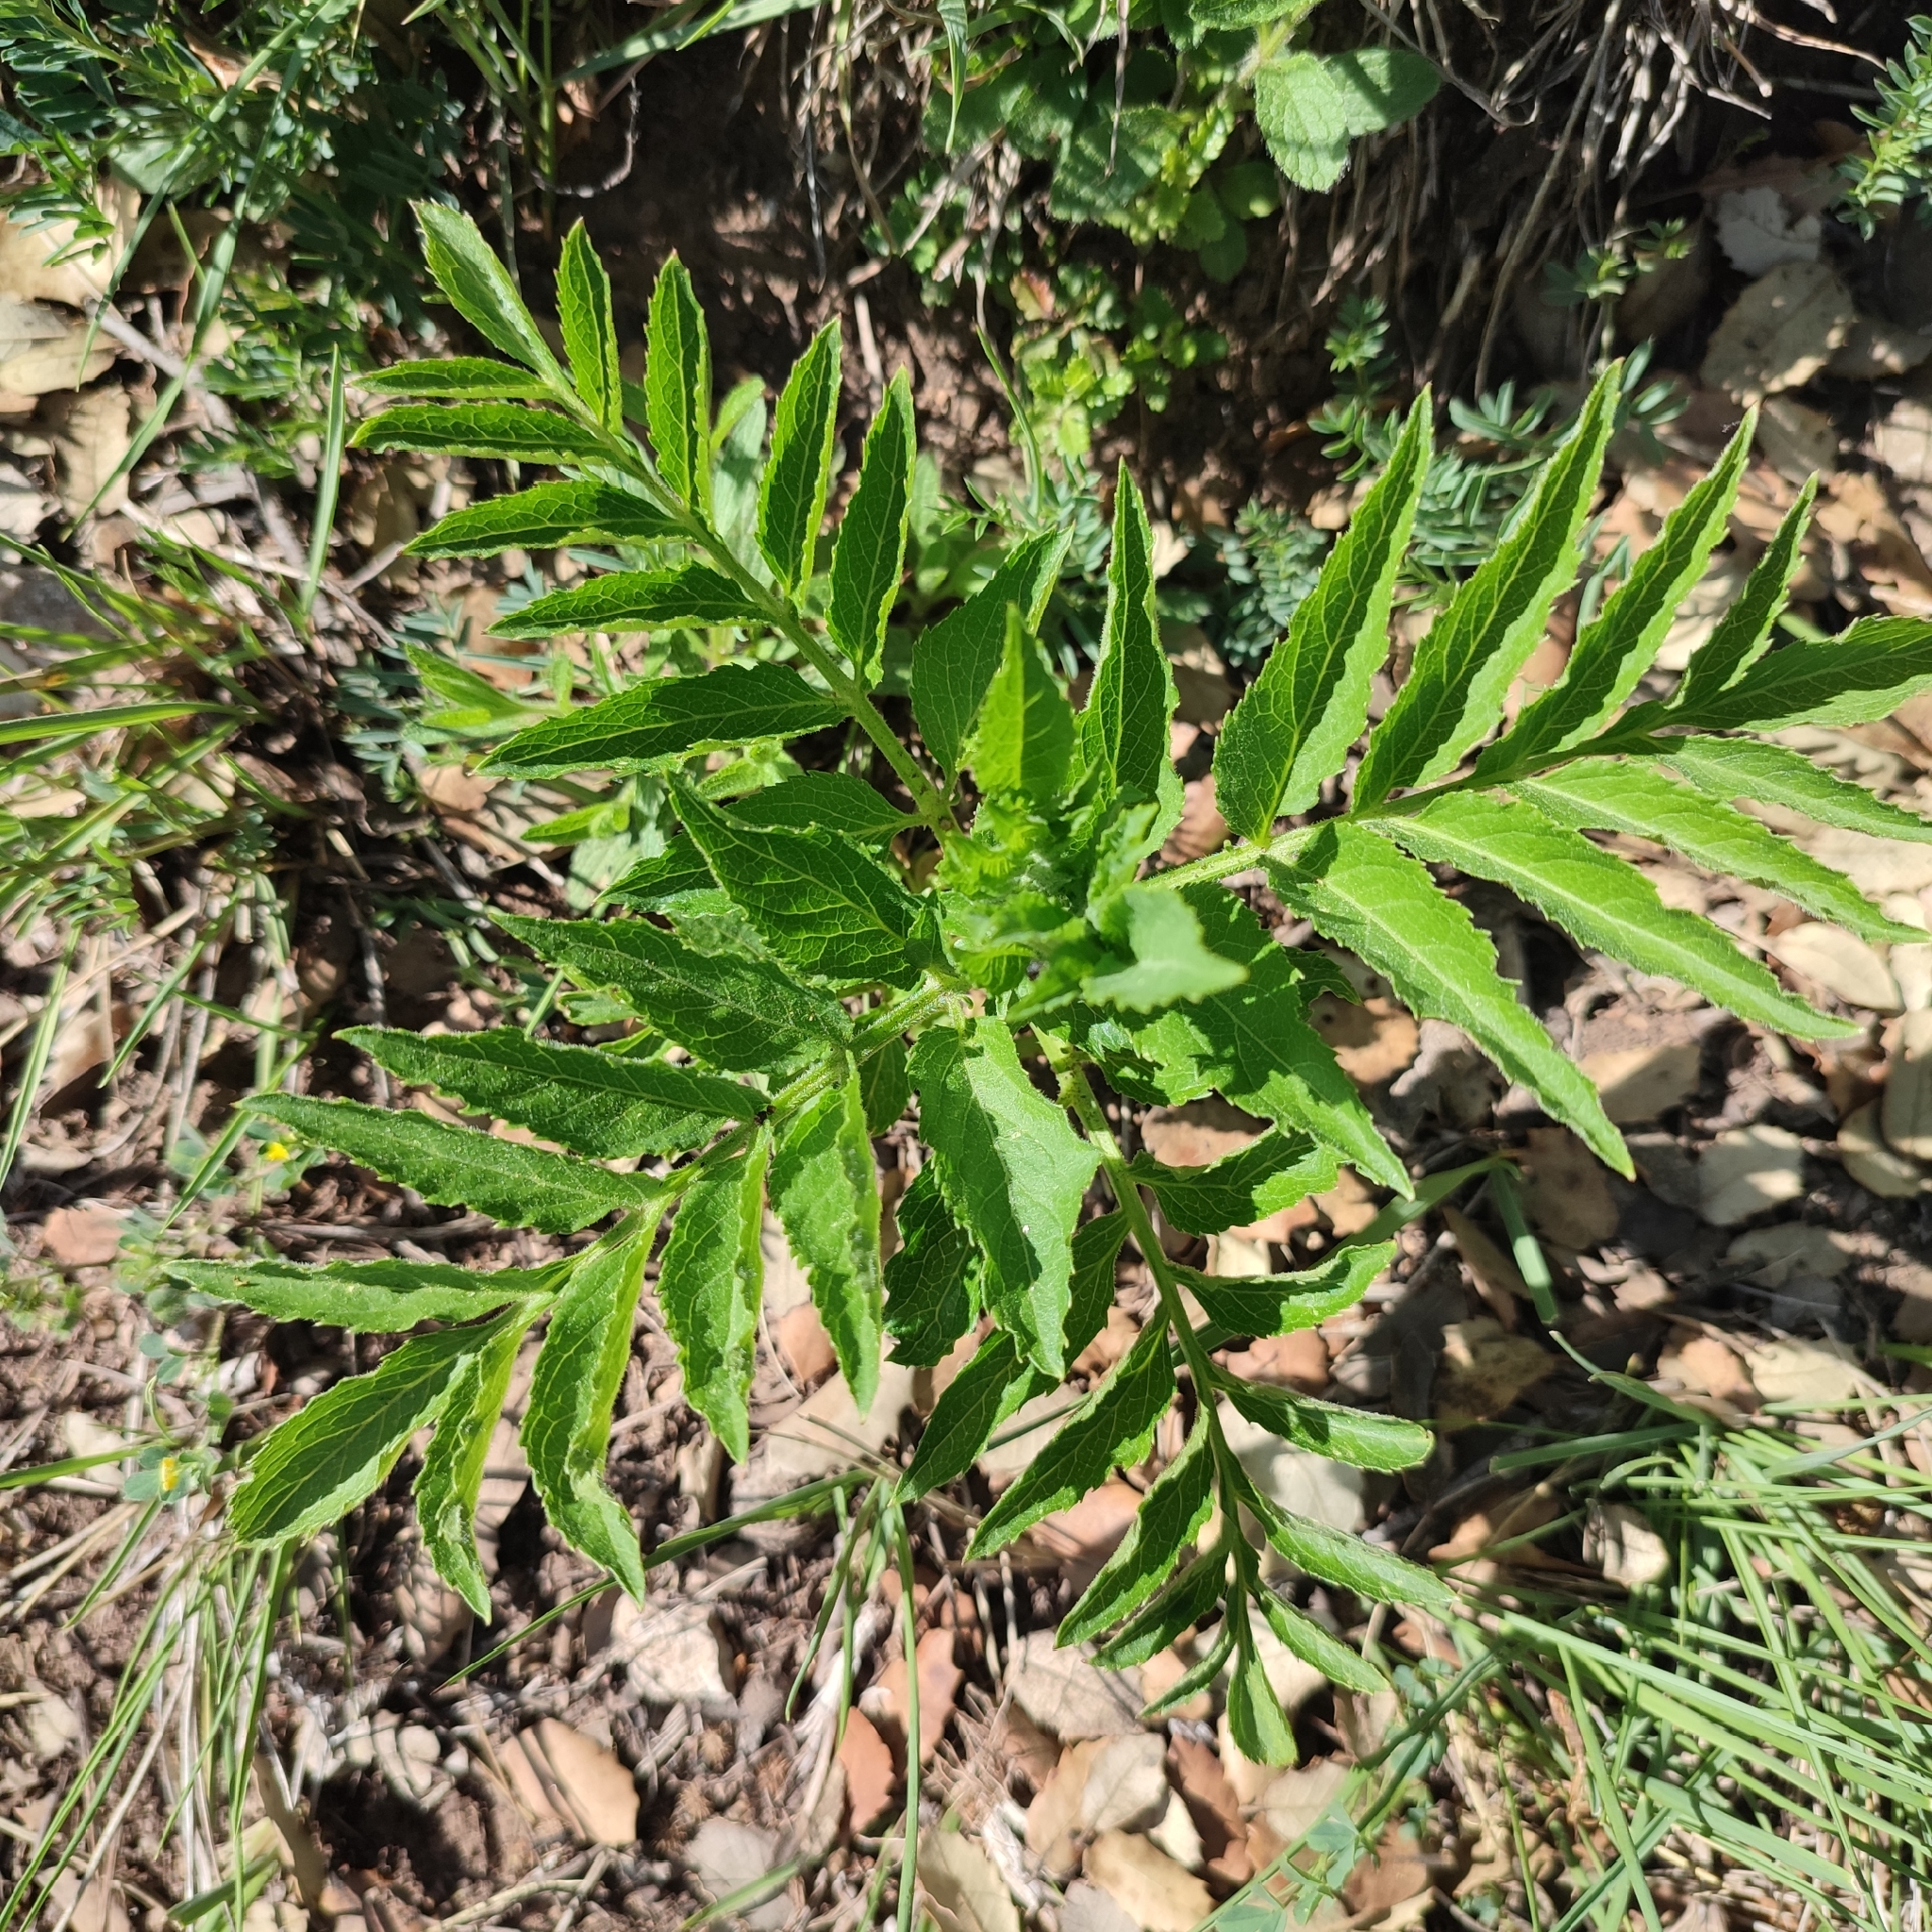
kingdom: Plantae
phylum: Tracheophyta
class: Magnoliopsida
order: Dipsacales
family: Viburnaceae
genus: Sambucus
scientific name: Sambucus ebulus
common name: Dwarf elder
